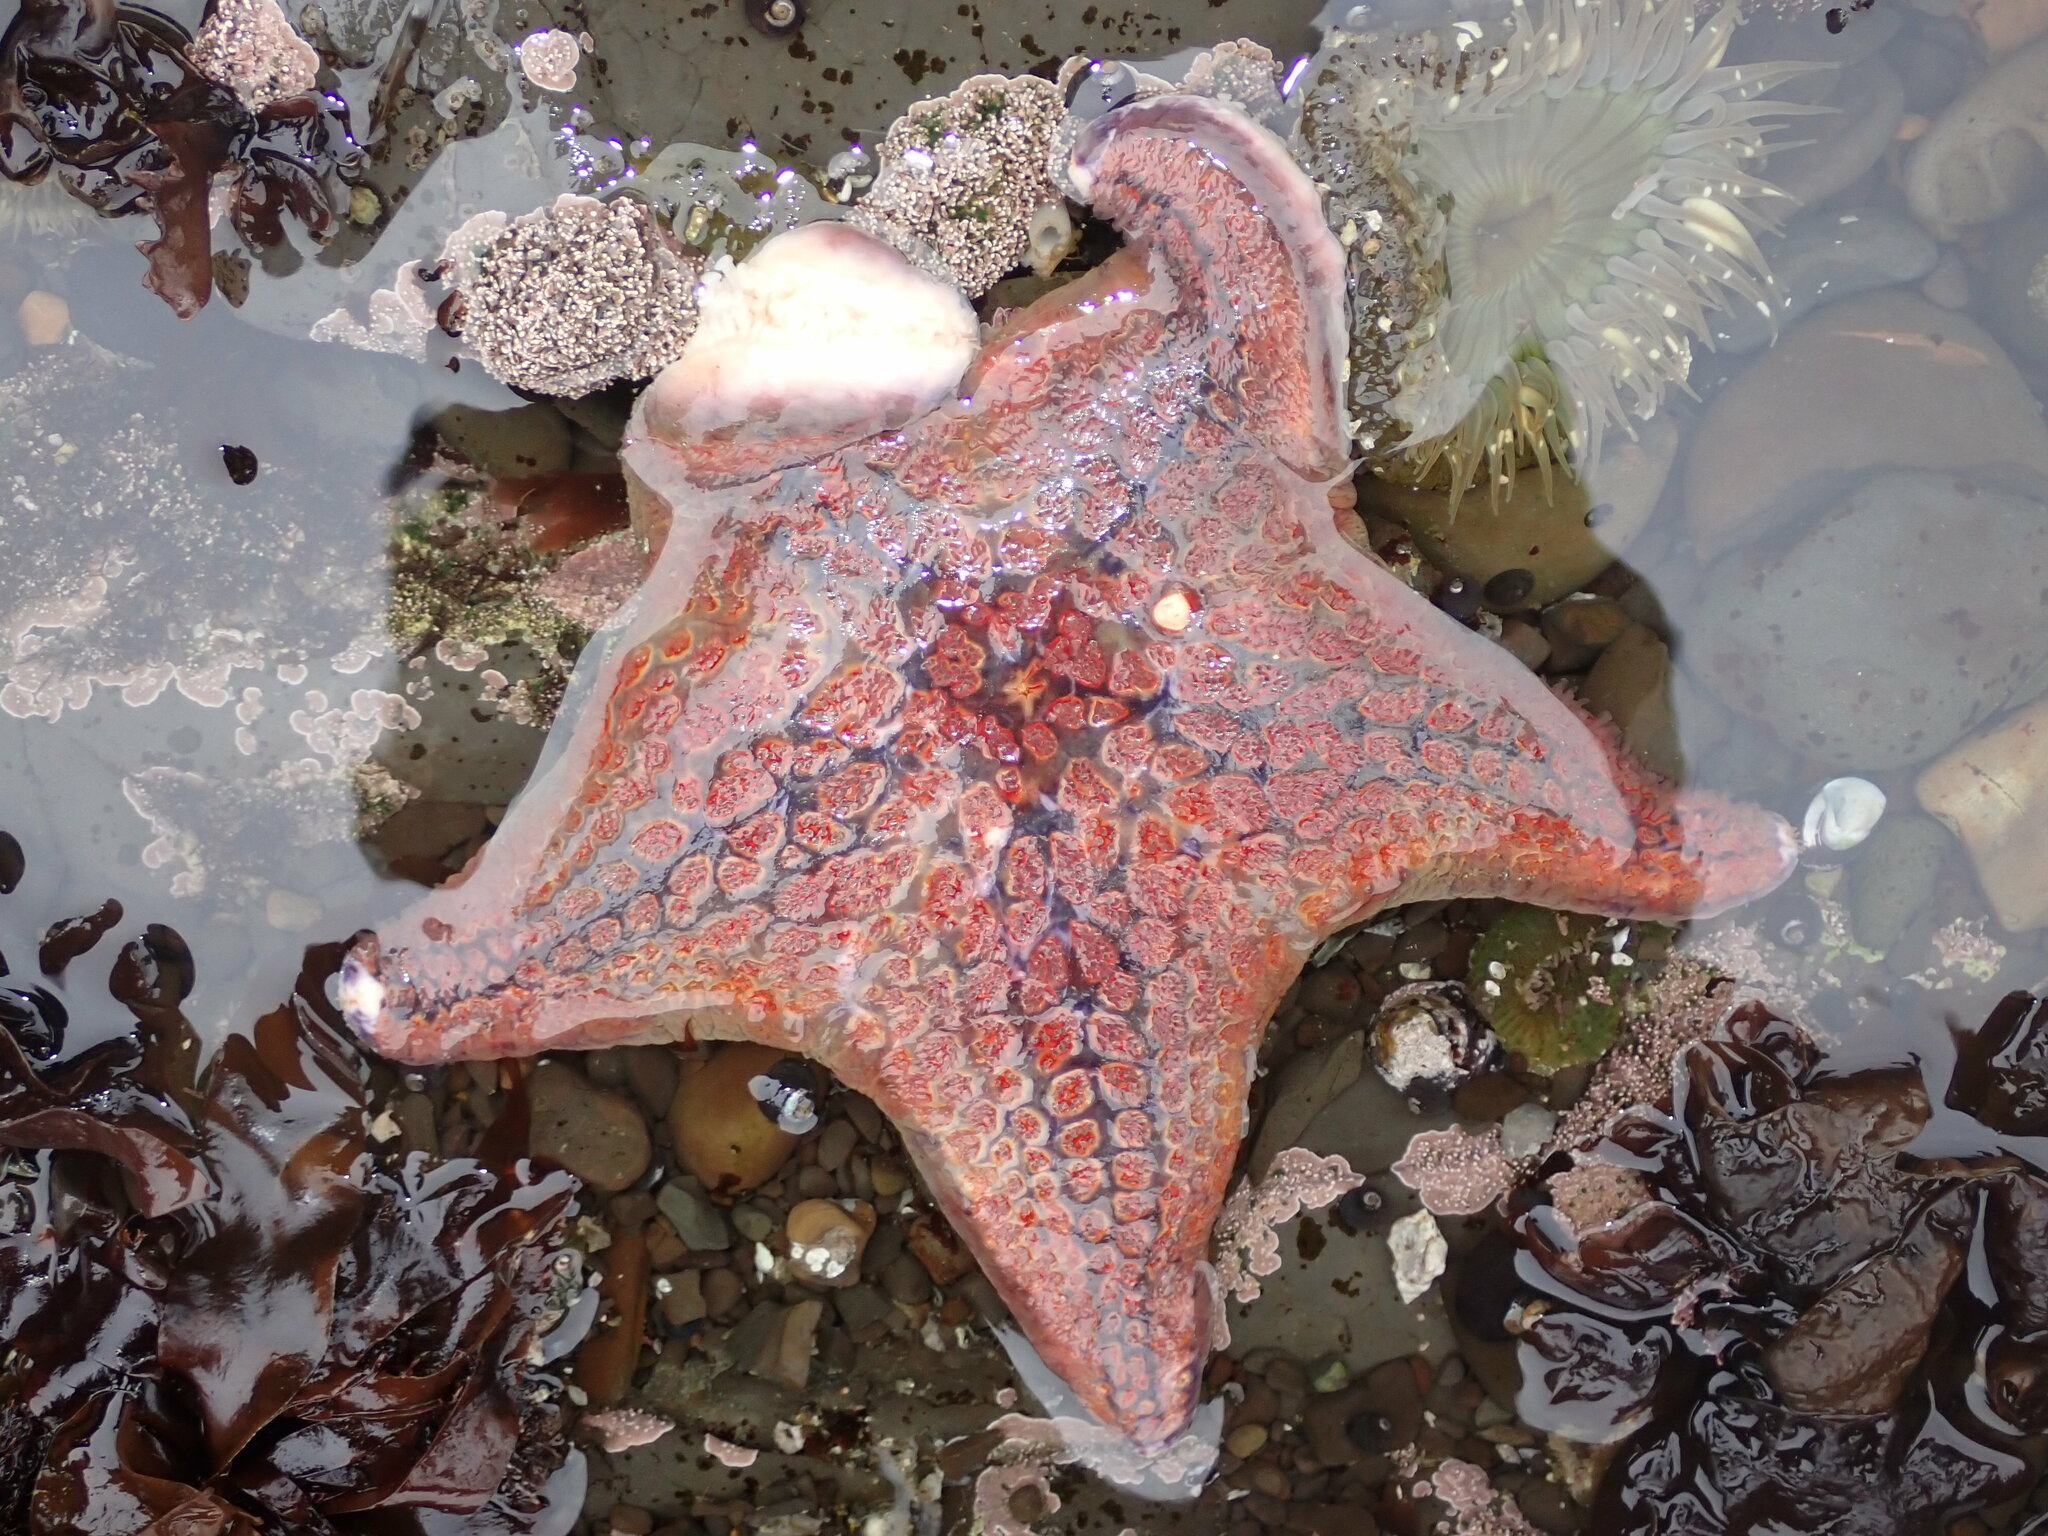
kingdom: Animalia
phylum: Echinodermata
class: Asteroidea
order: Valvatida
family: Asteropseidae
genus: Dermasterias
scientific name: Dermasterias imbricata
